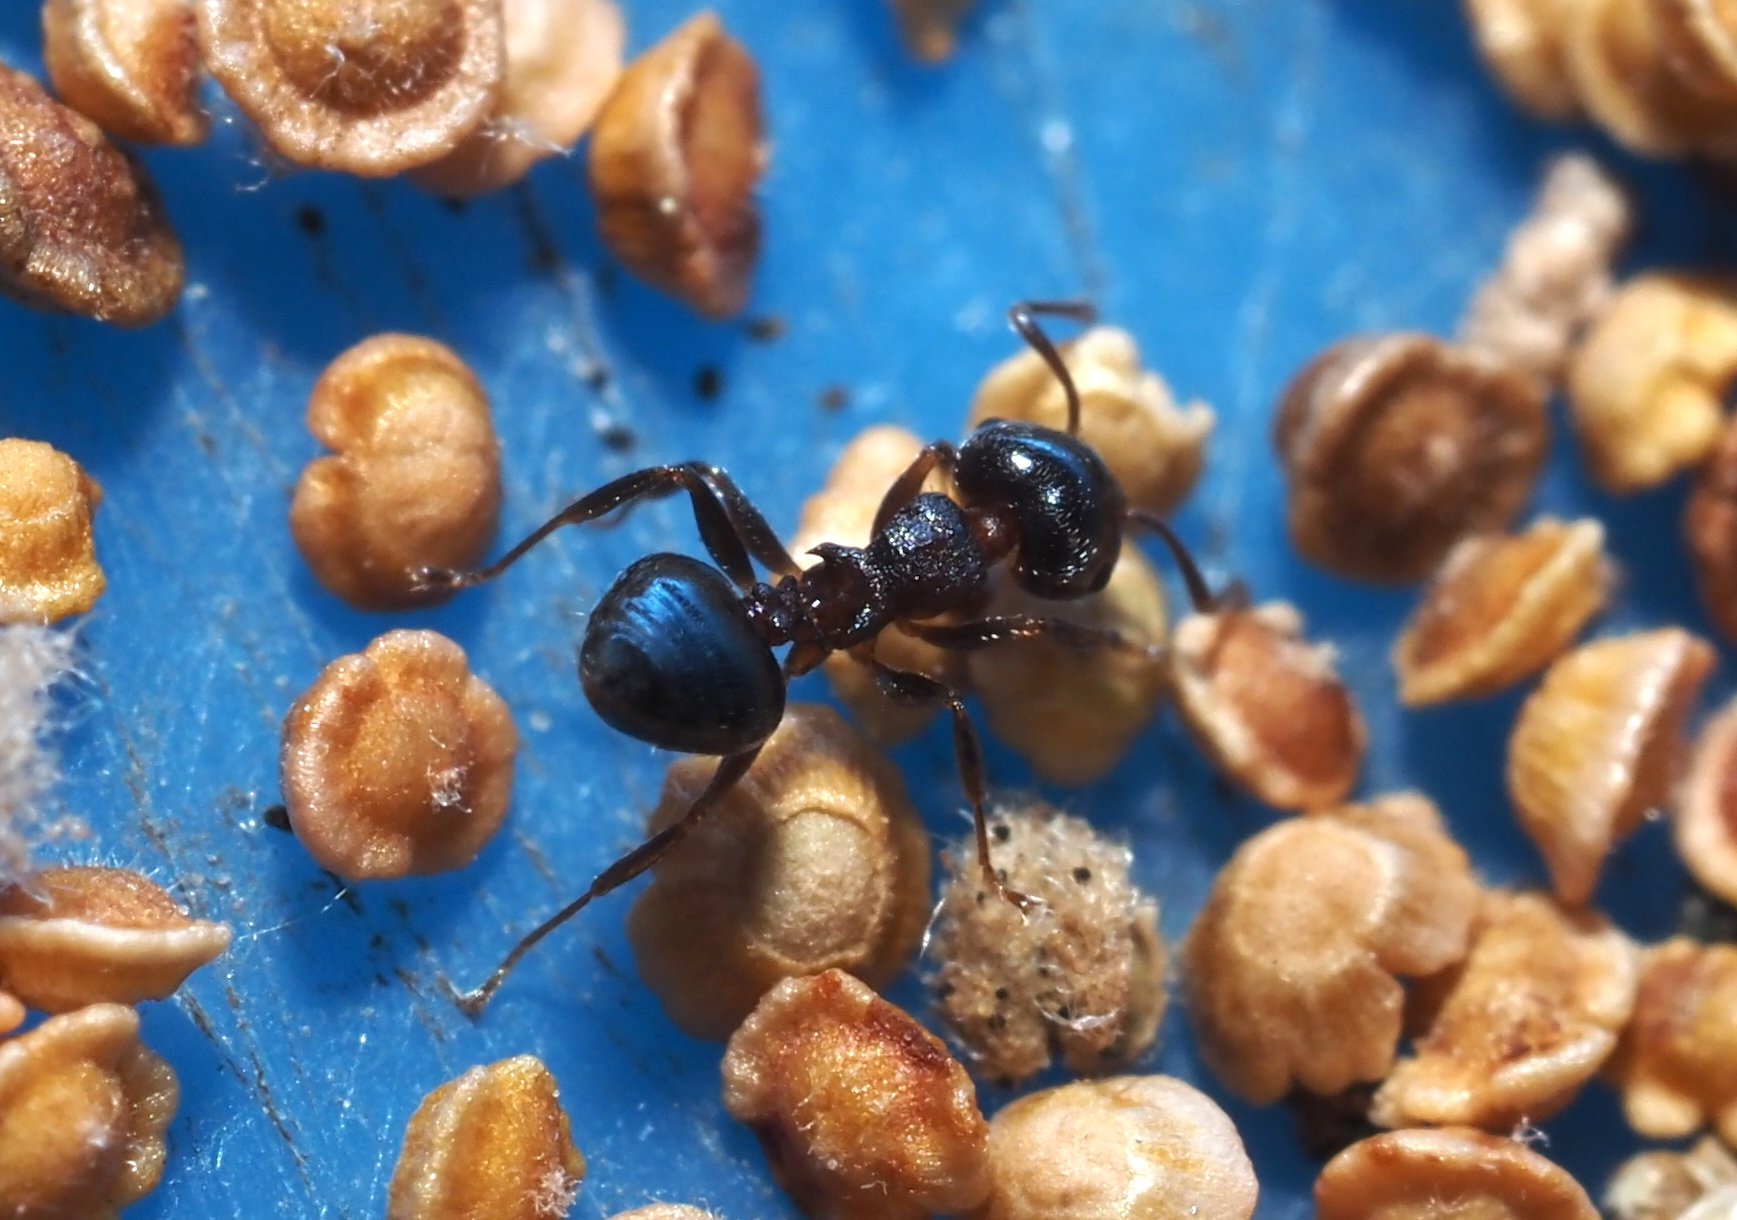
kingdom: Animalia
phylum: Arthropoda
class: Insecta
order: Hymenoptera
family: Formicidae
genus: Crematogaster
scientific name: Crematogaster ashmeadi
